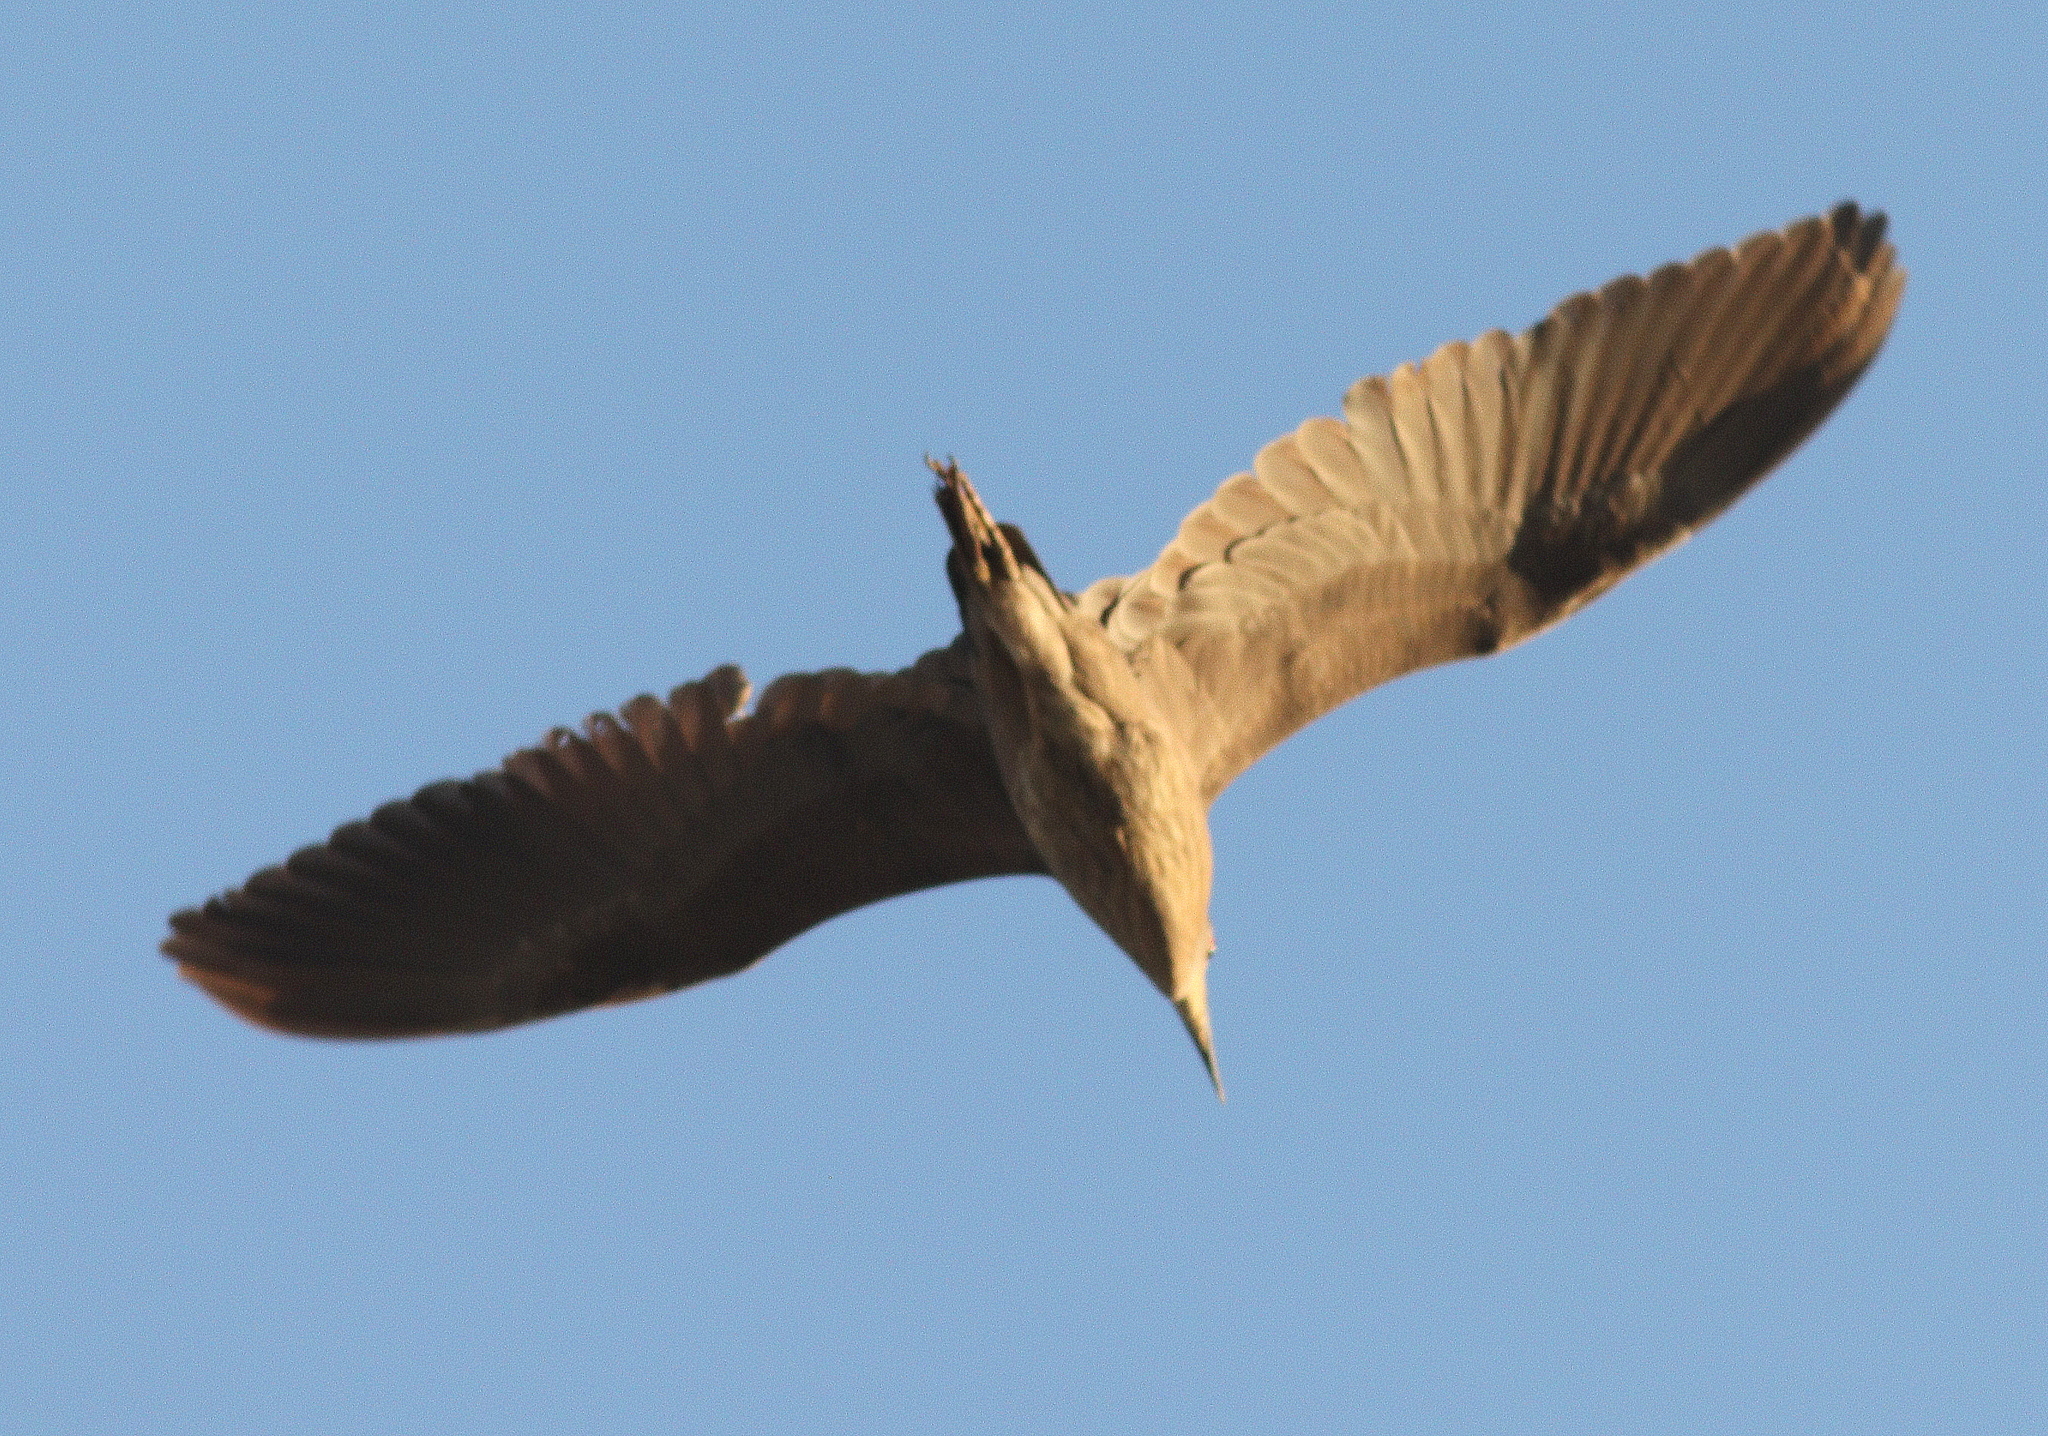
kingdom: Animalia
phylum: Chordata
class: Aves
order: Pelecaniformes
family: Ardeidae
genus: Nycticorax
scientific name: Nycticorax nycticorax
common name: Black-crowned night heron
